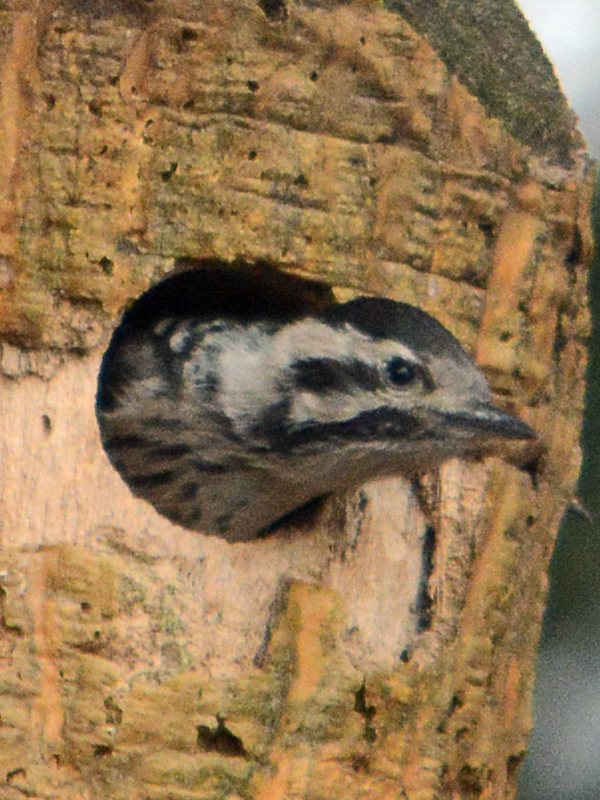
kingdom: Animalia
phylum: Chordata
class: Aves
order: Piciformes
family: Picidae
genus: Dryobates
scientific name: Dryobates scalaris
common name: Ladder-backed woodpecker
